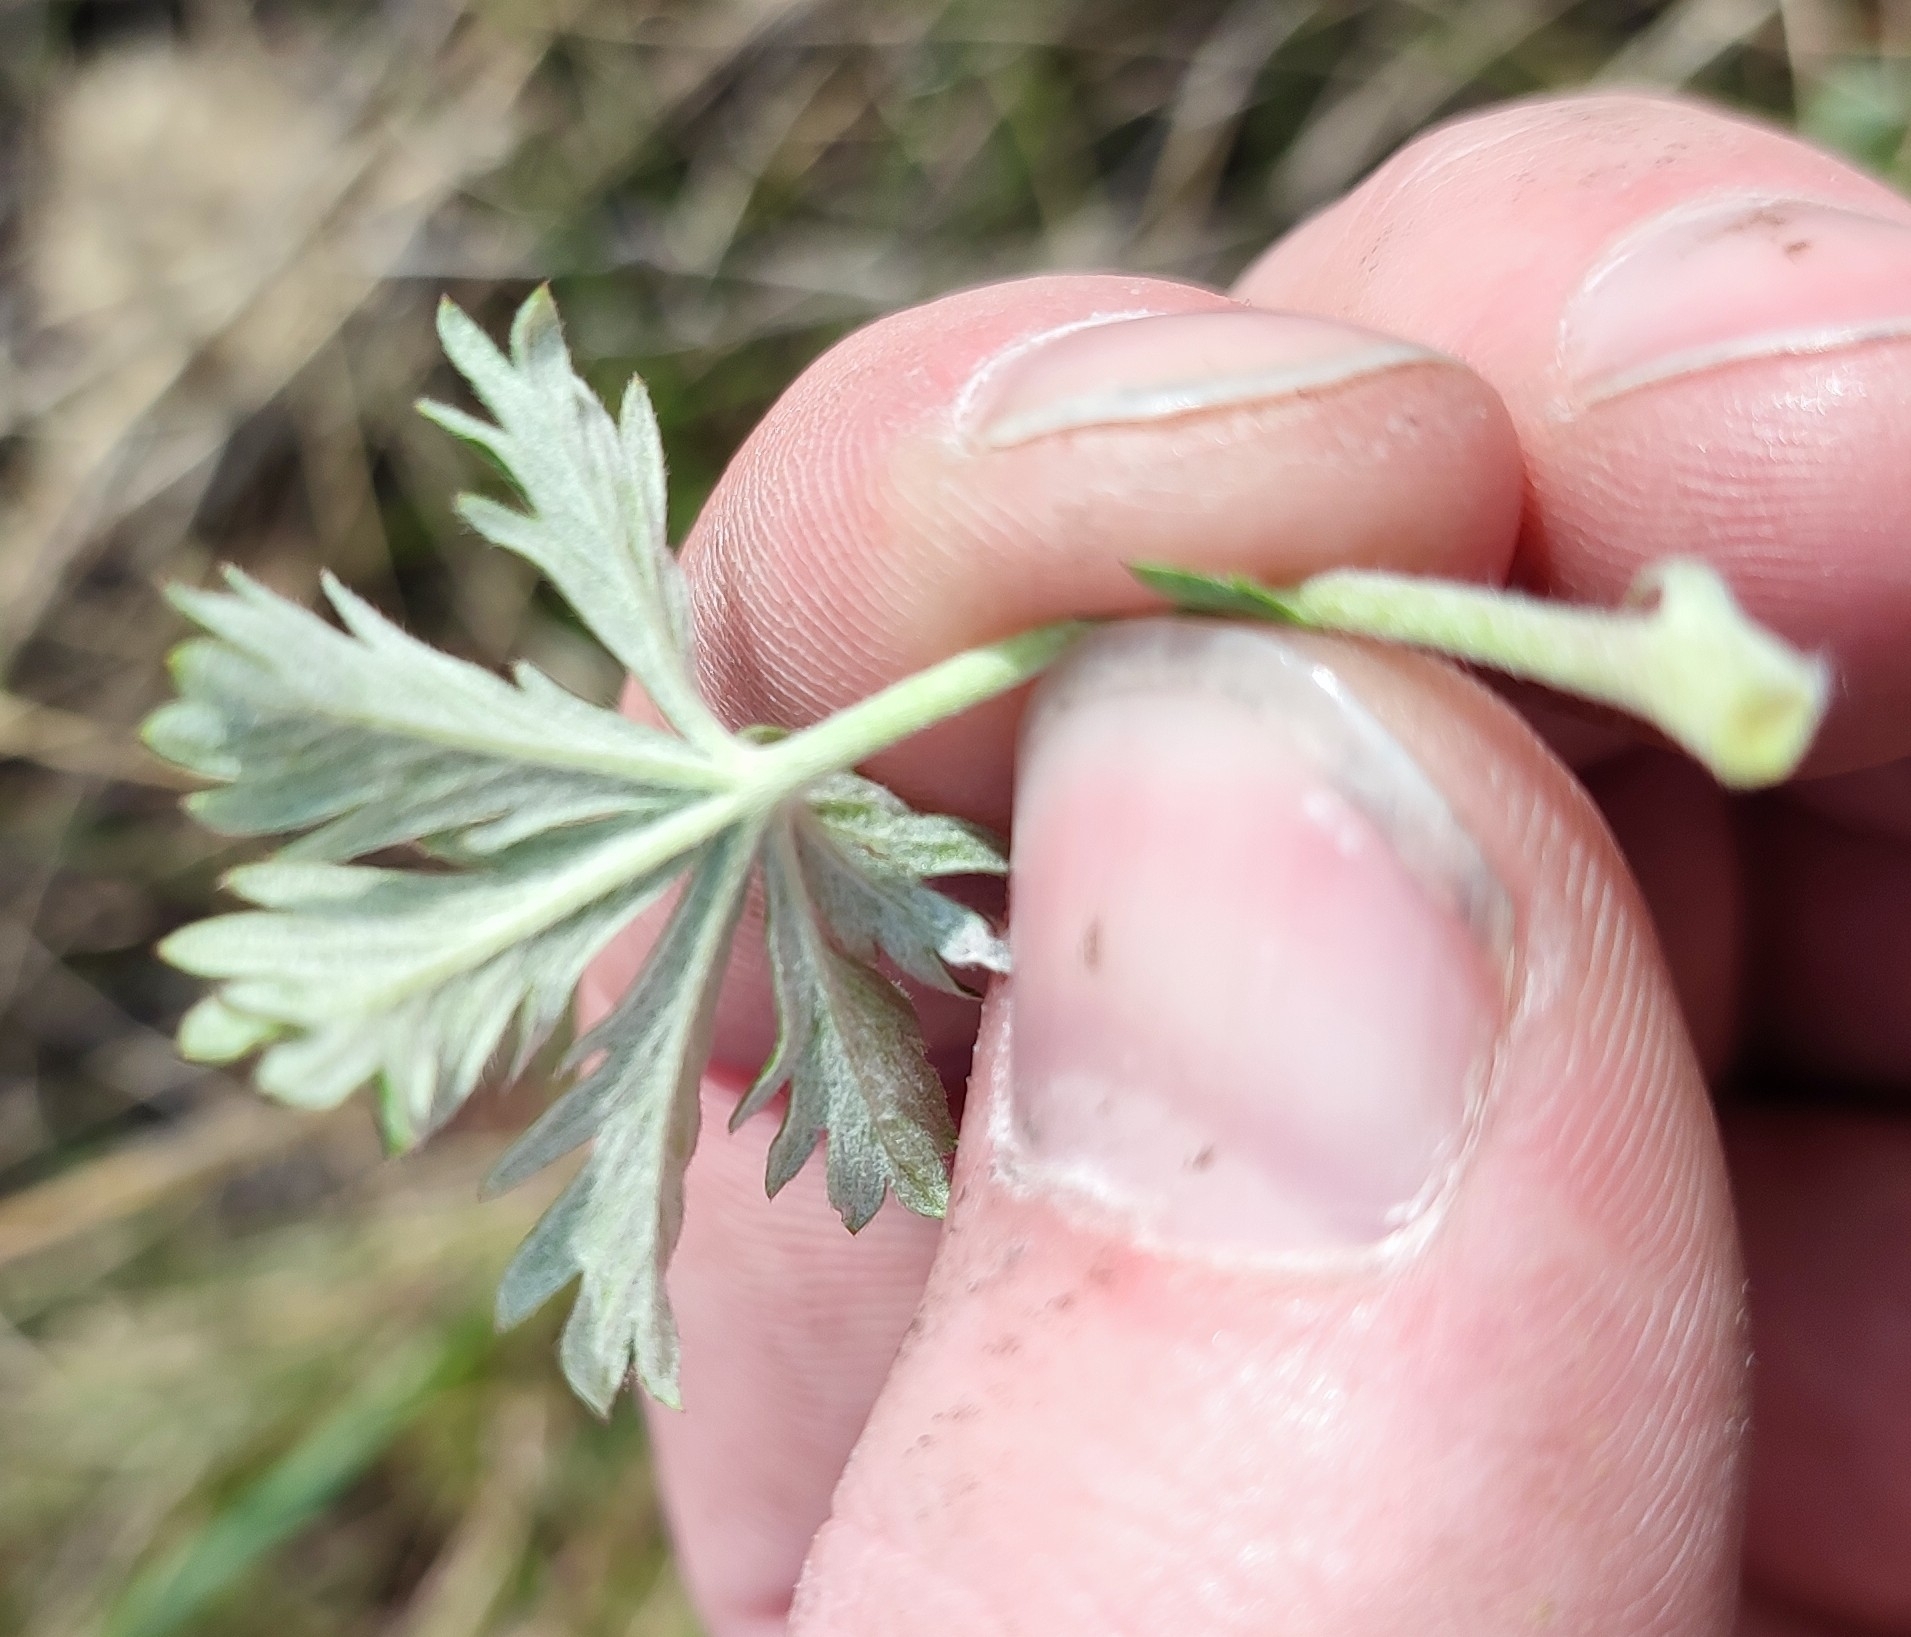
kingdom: Plantae
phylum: Tracheophyta
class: Magnoliopsida
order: Rosales
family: Rosaceae
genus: Potentilla
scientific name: Potentilla argentea
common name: Hoary cinquefoil
